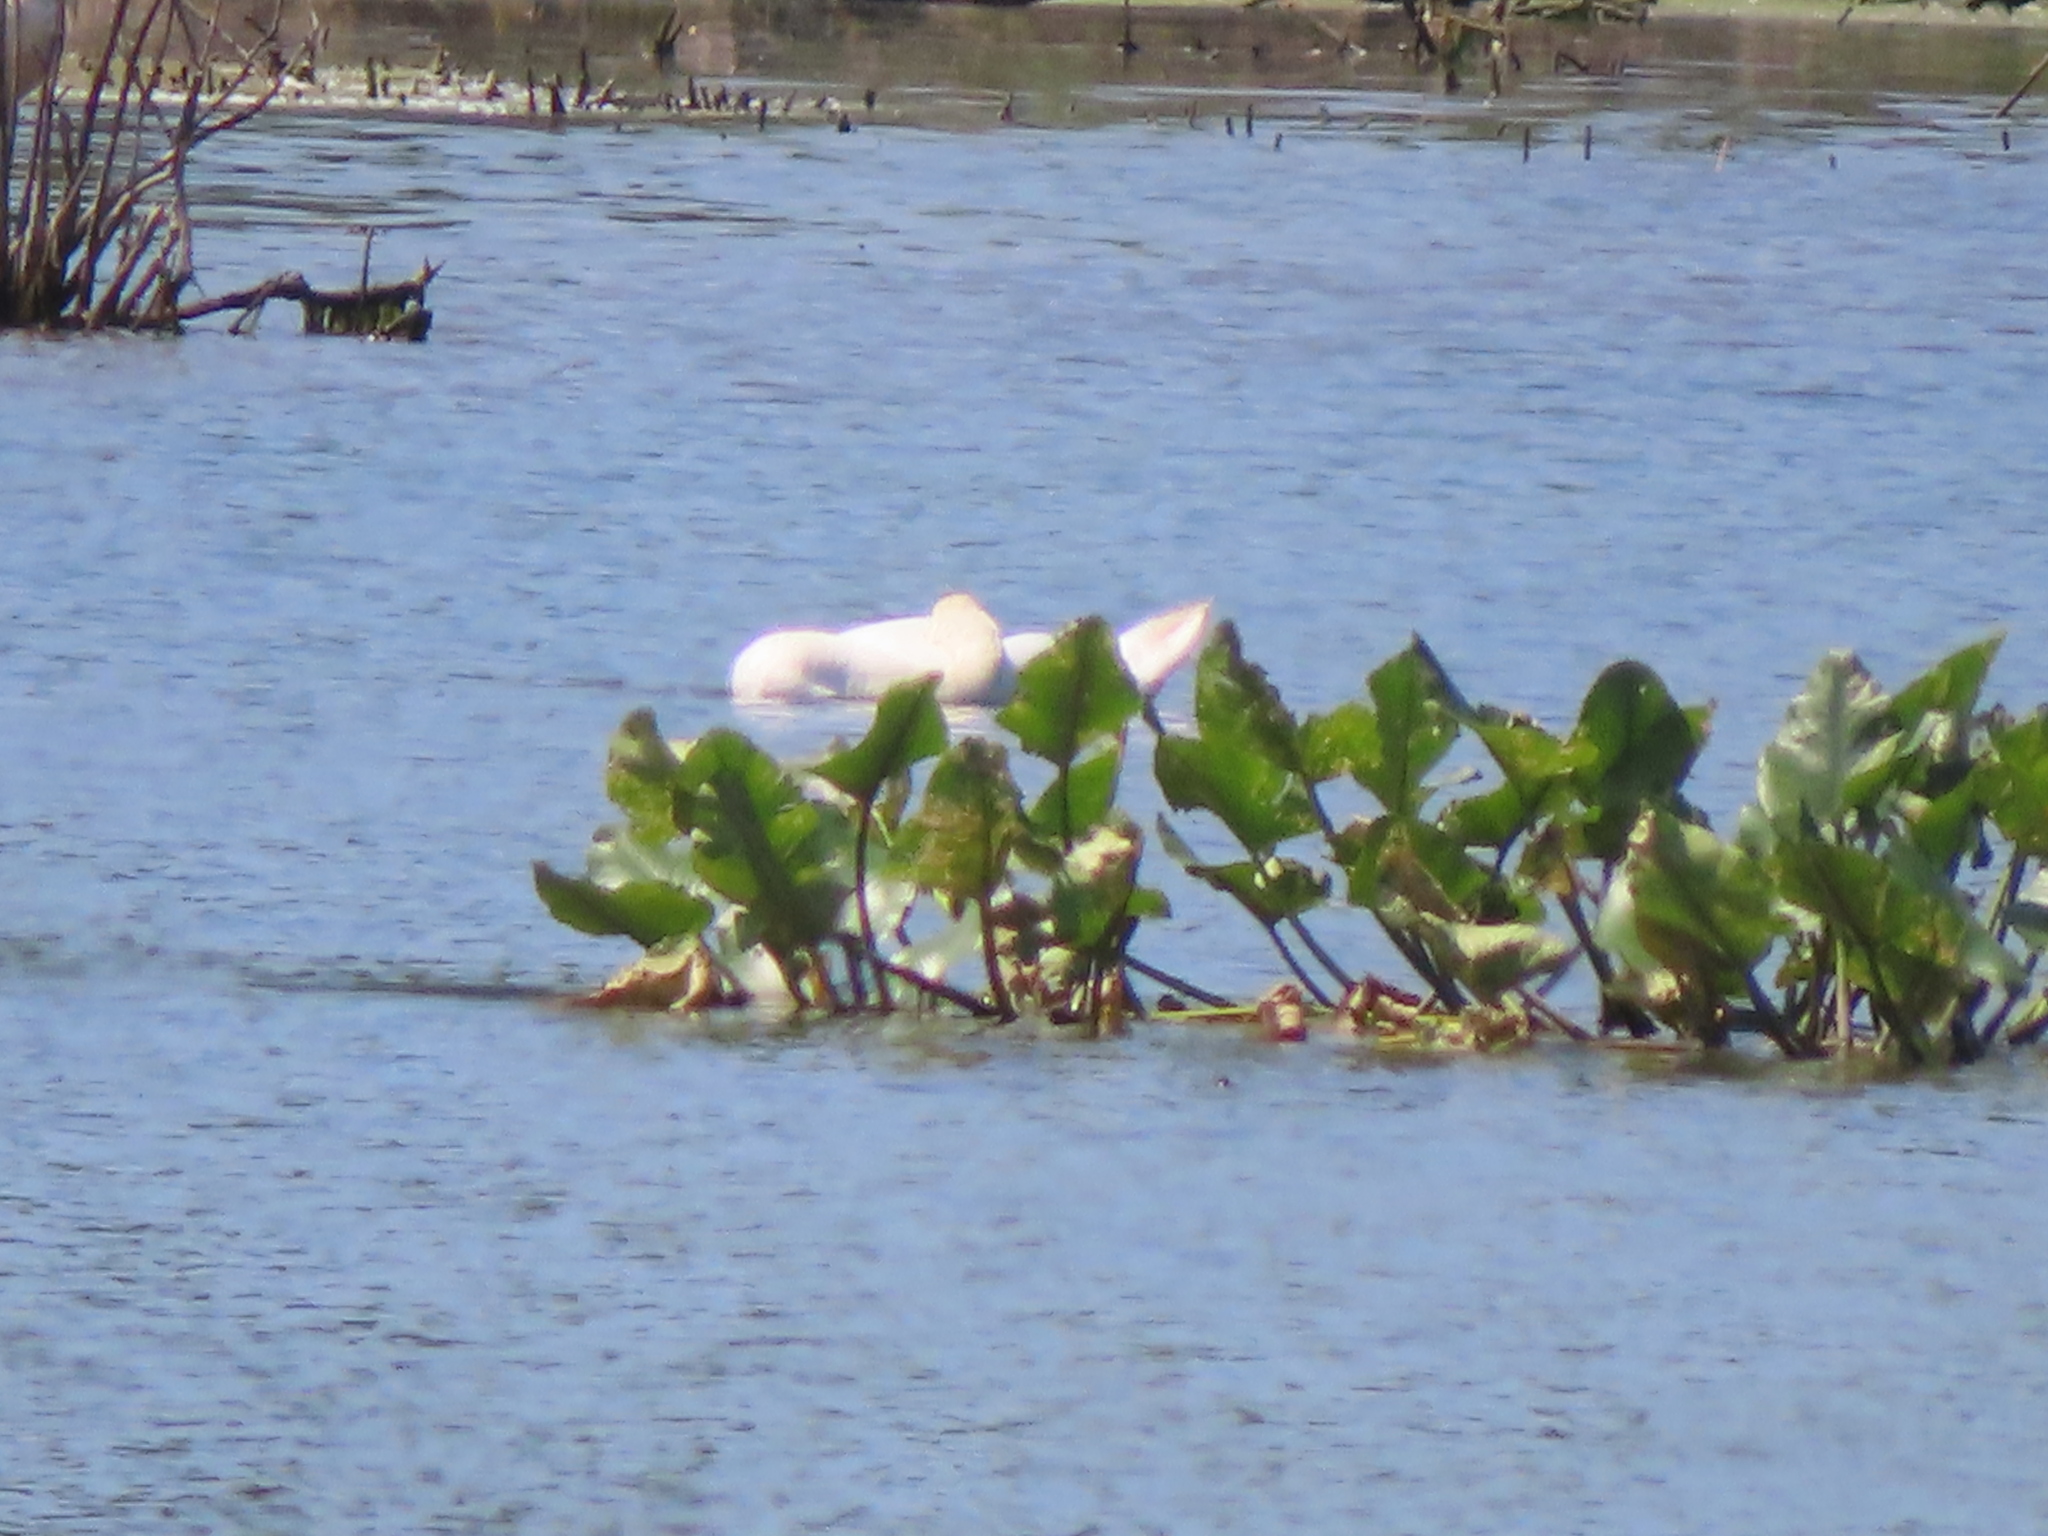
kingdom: Animalia
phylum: Chordata
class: Aves
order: Anseriformes
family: Anatidae
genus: Cygnus
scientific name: Cygnus olor
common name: Mute swan
